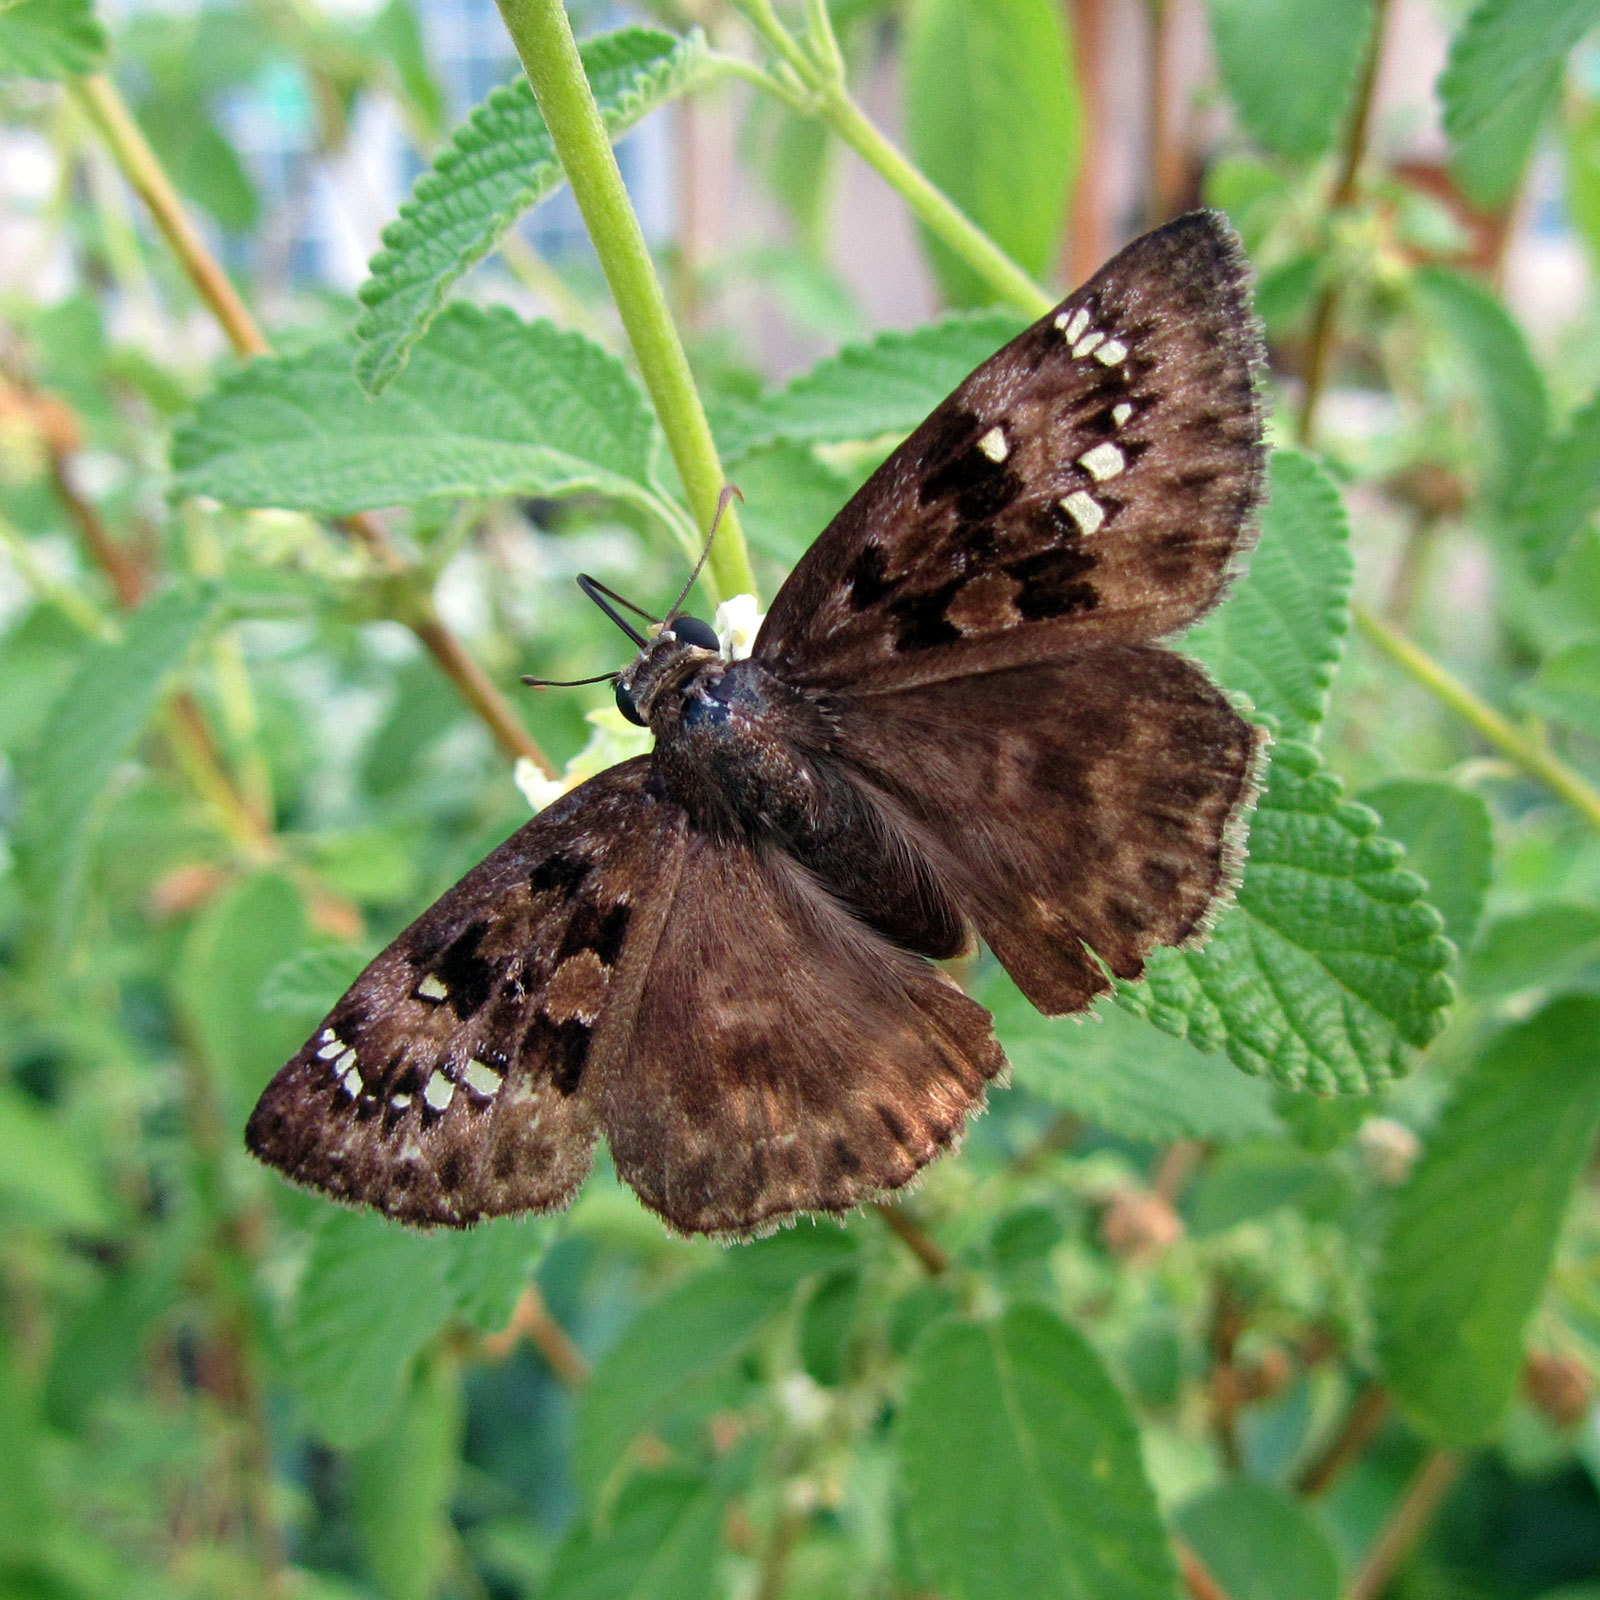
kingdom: Animalia
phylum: Arthropoda
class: Insecta
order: Lepidoptera
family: Hesperiidae
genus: Erynnis
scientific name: Erynnis horatius
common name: Horace's duskywing
